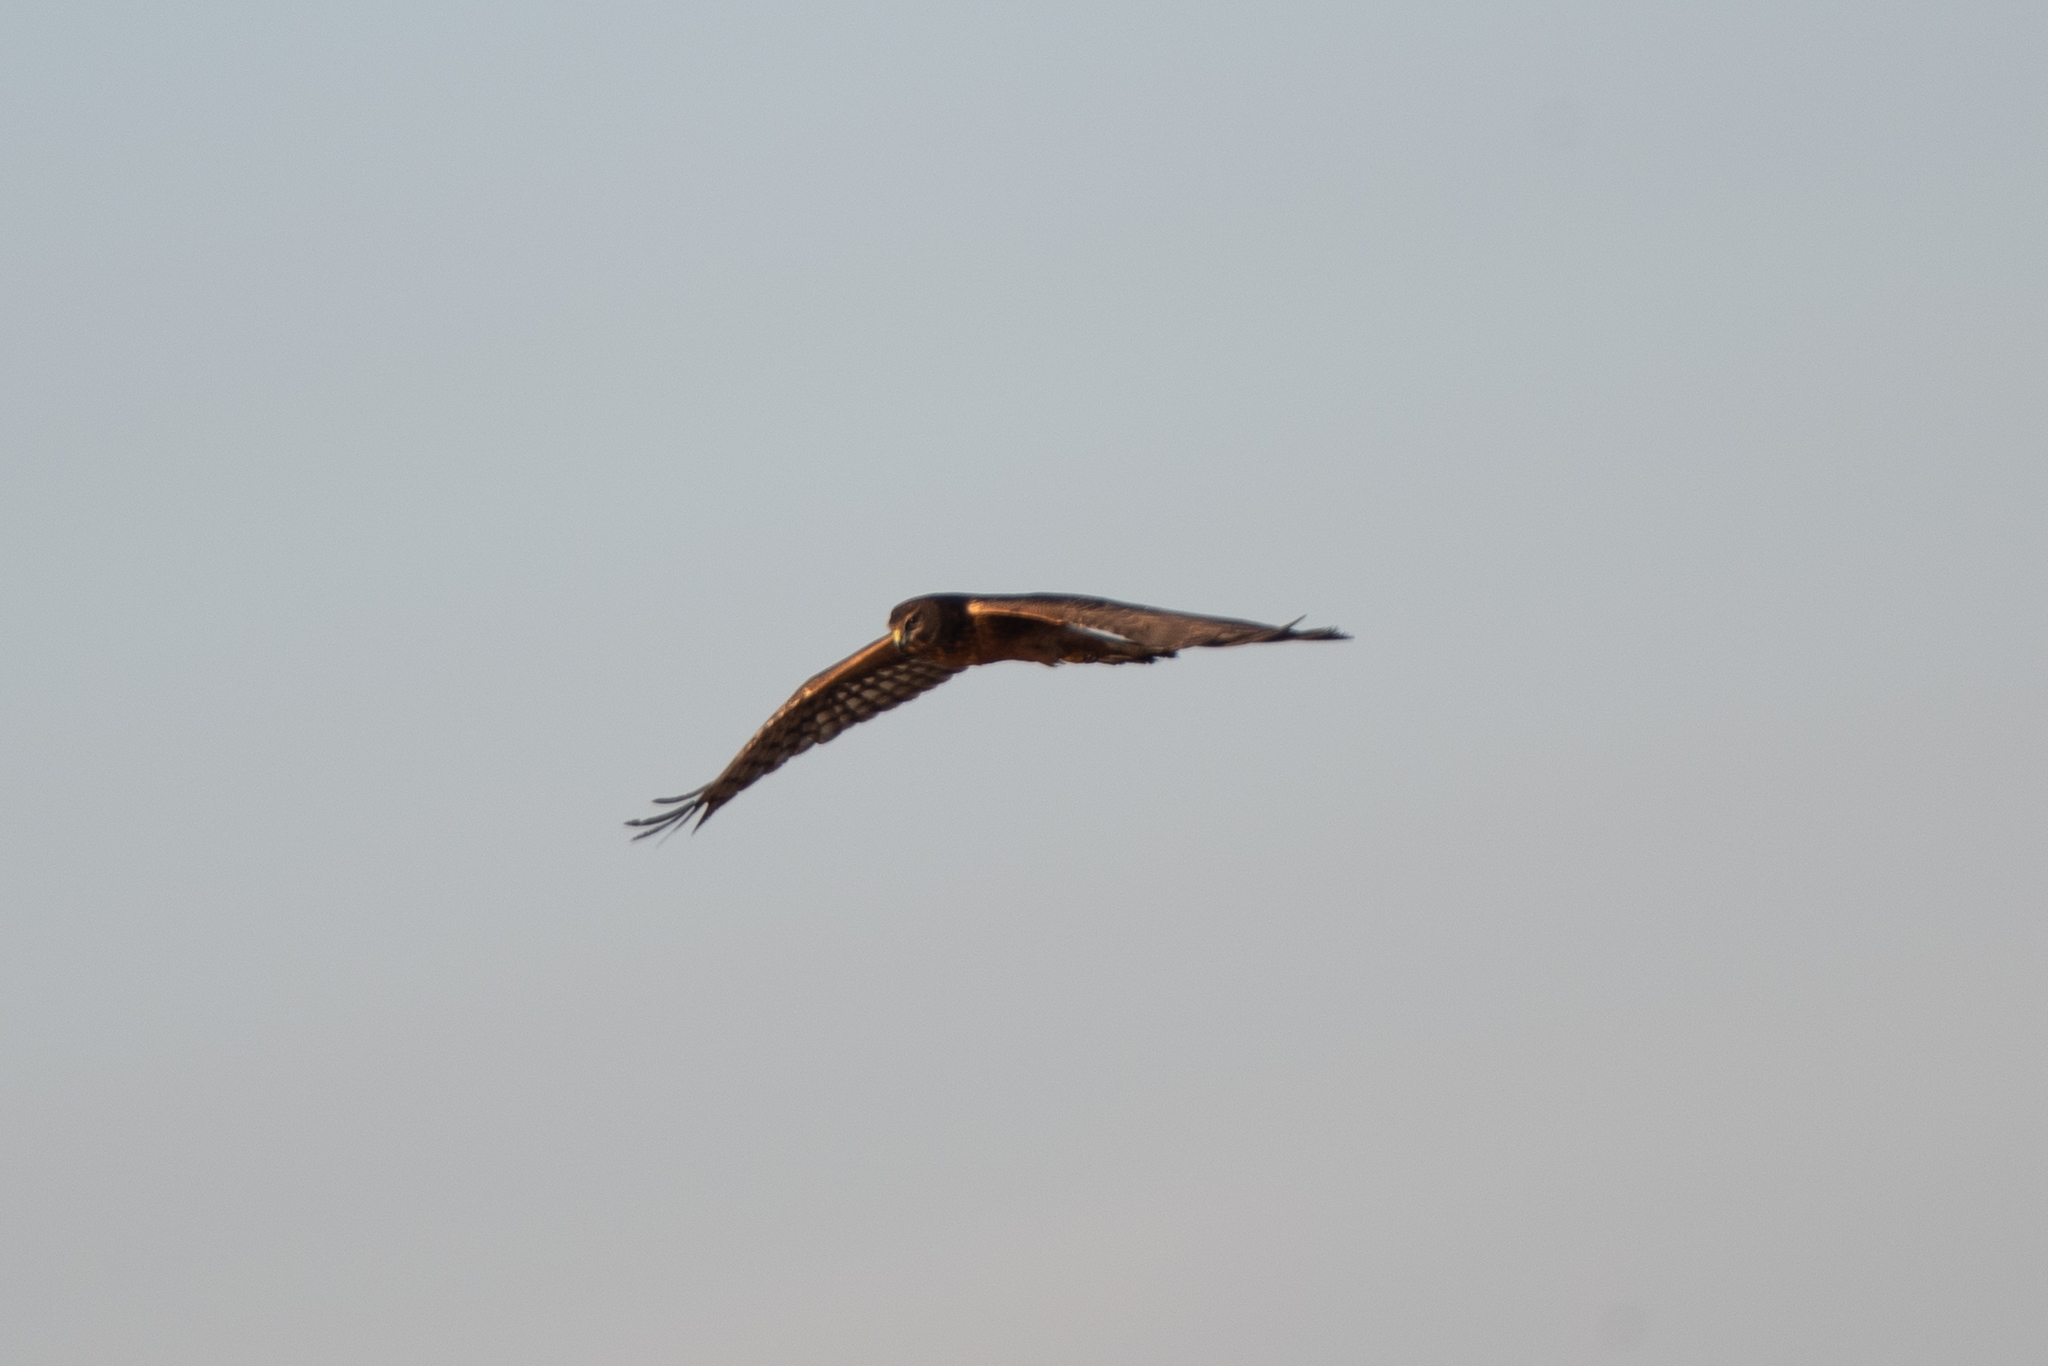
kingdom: Animalia
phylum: Chordata
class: Aves
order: Accipitriformes
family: Accipitridae
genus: Circus
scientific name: Circus cyaneus
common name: Hen harrier
